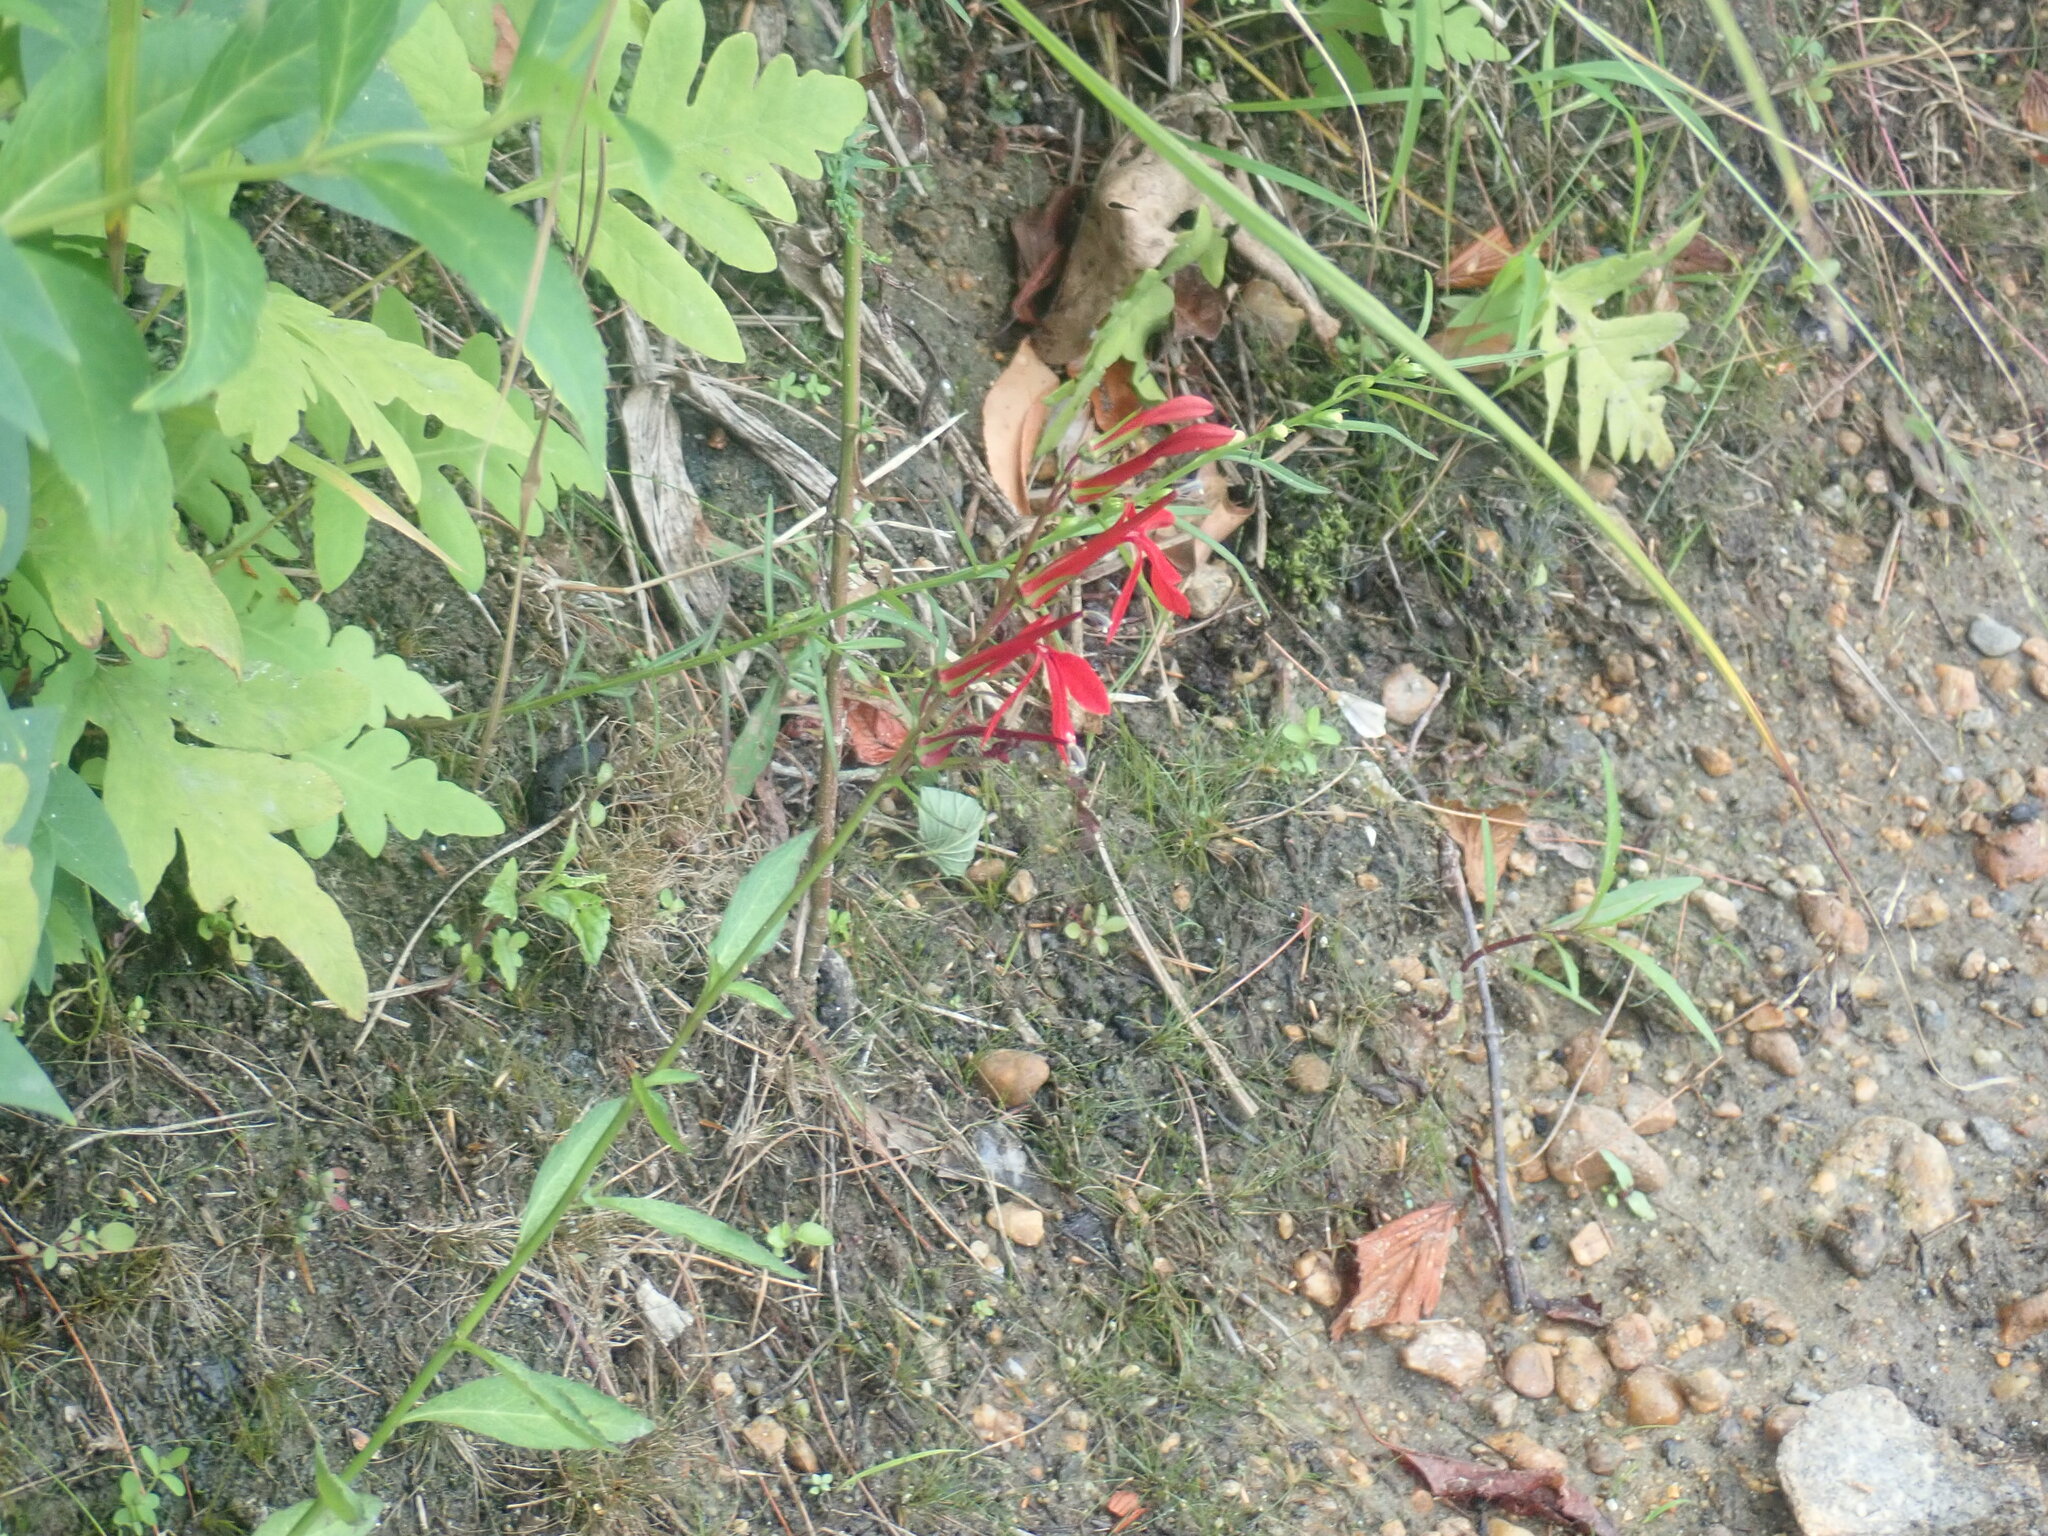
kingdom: Plantae
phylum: Tracheophyta
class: Magnoliopsida
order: Asterales
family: Campanulaceae
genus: Lobelia
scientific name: Lobelia cardinalis
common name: Cardinal flower
